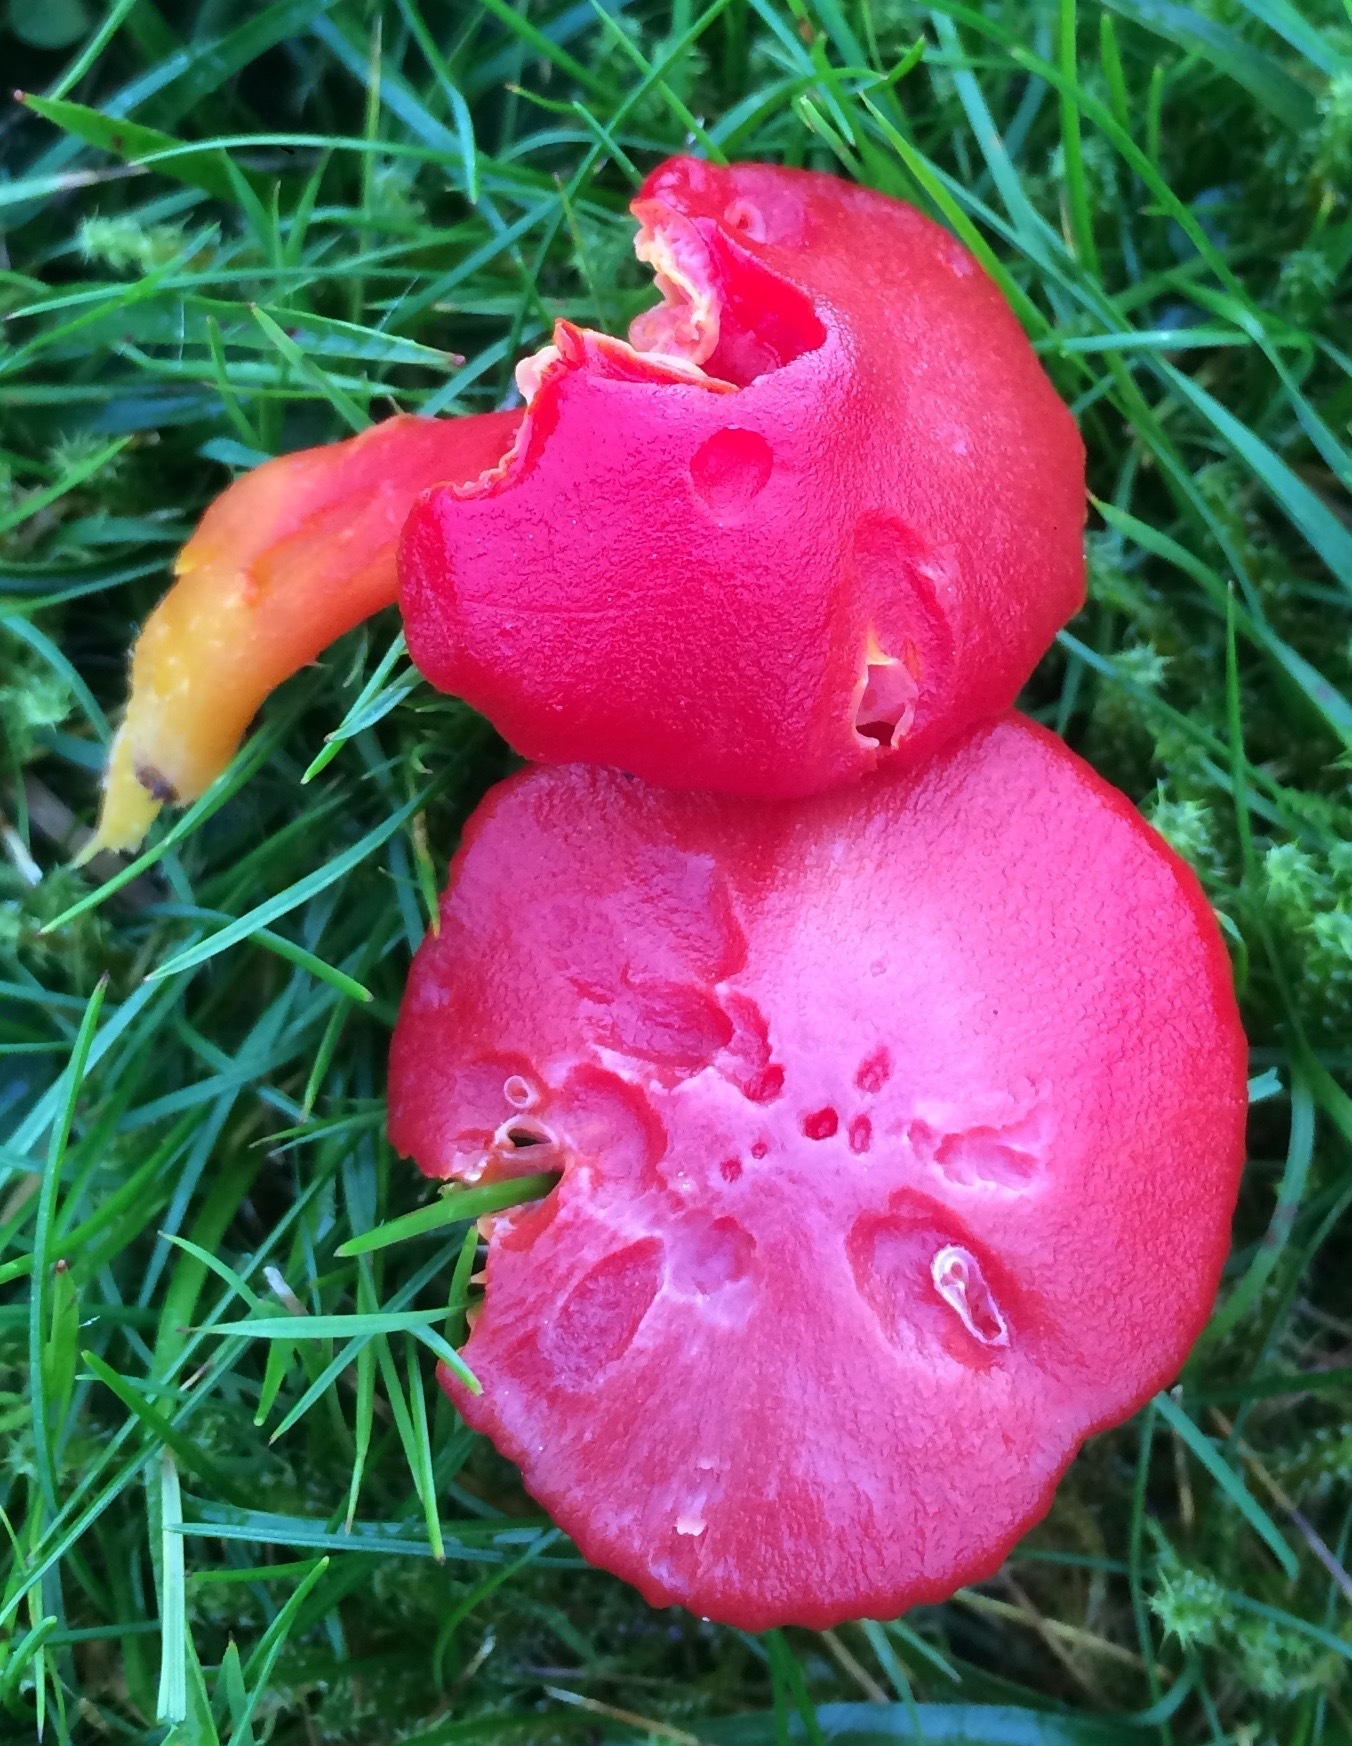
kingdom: Fungi
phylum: Basidiomycota
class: Agaricomycetes
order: Agaricales
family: Hygrophoraceae
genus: Hygrocybe
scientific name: Hygrocybe coccinea
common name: Scarlet hood
